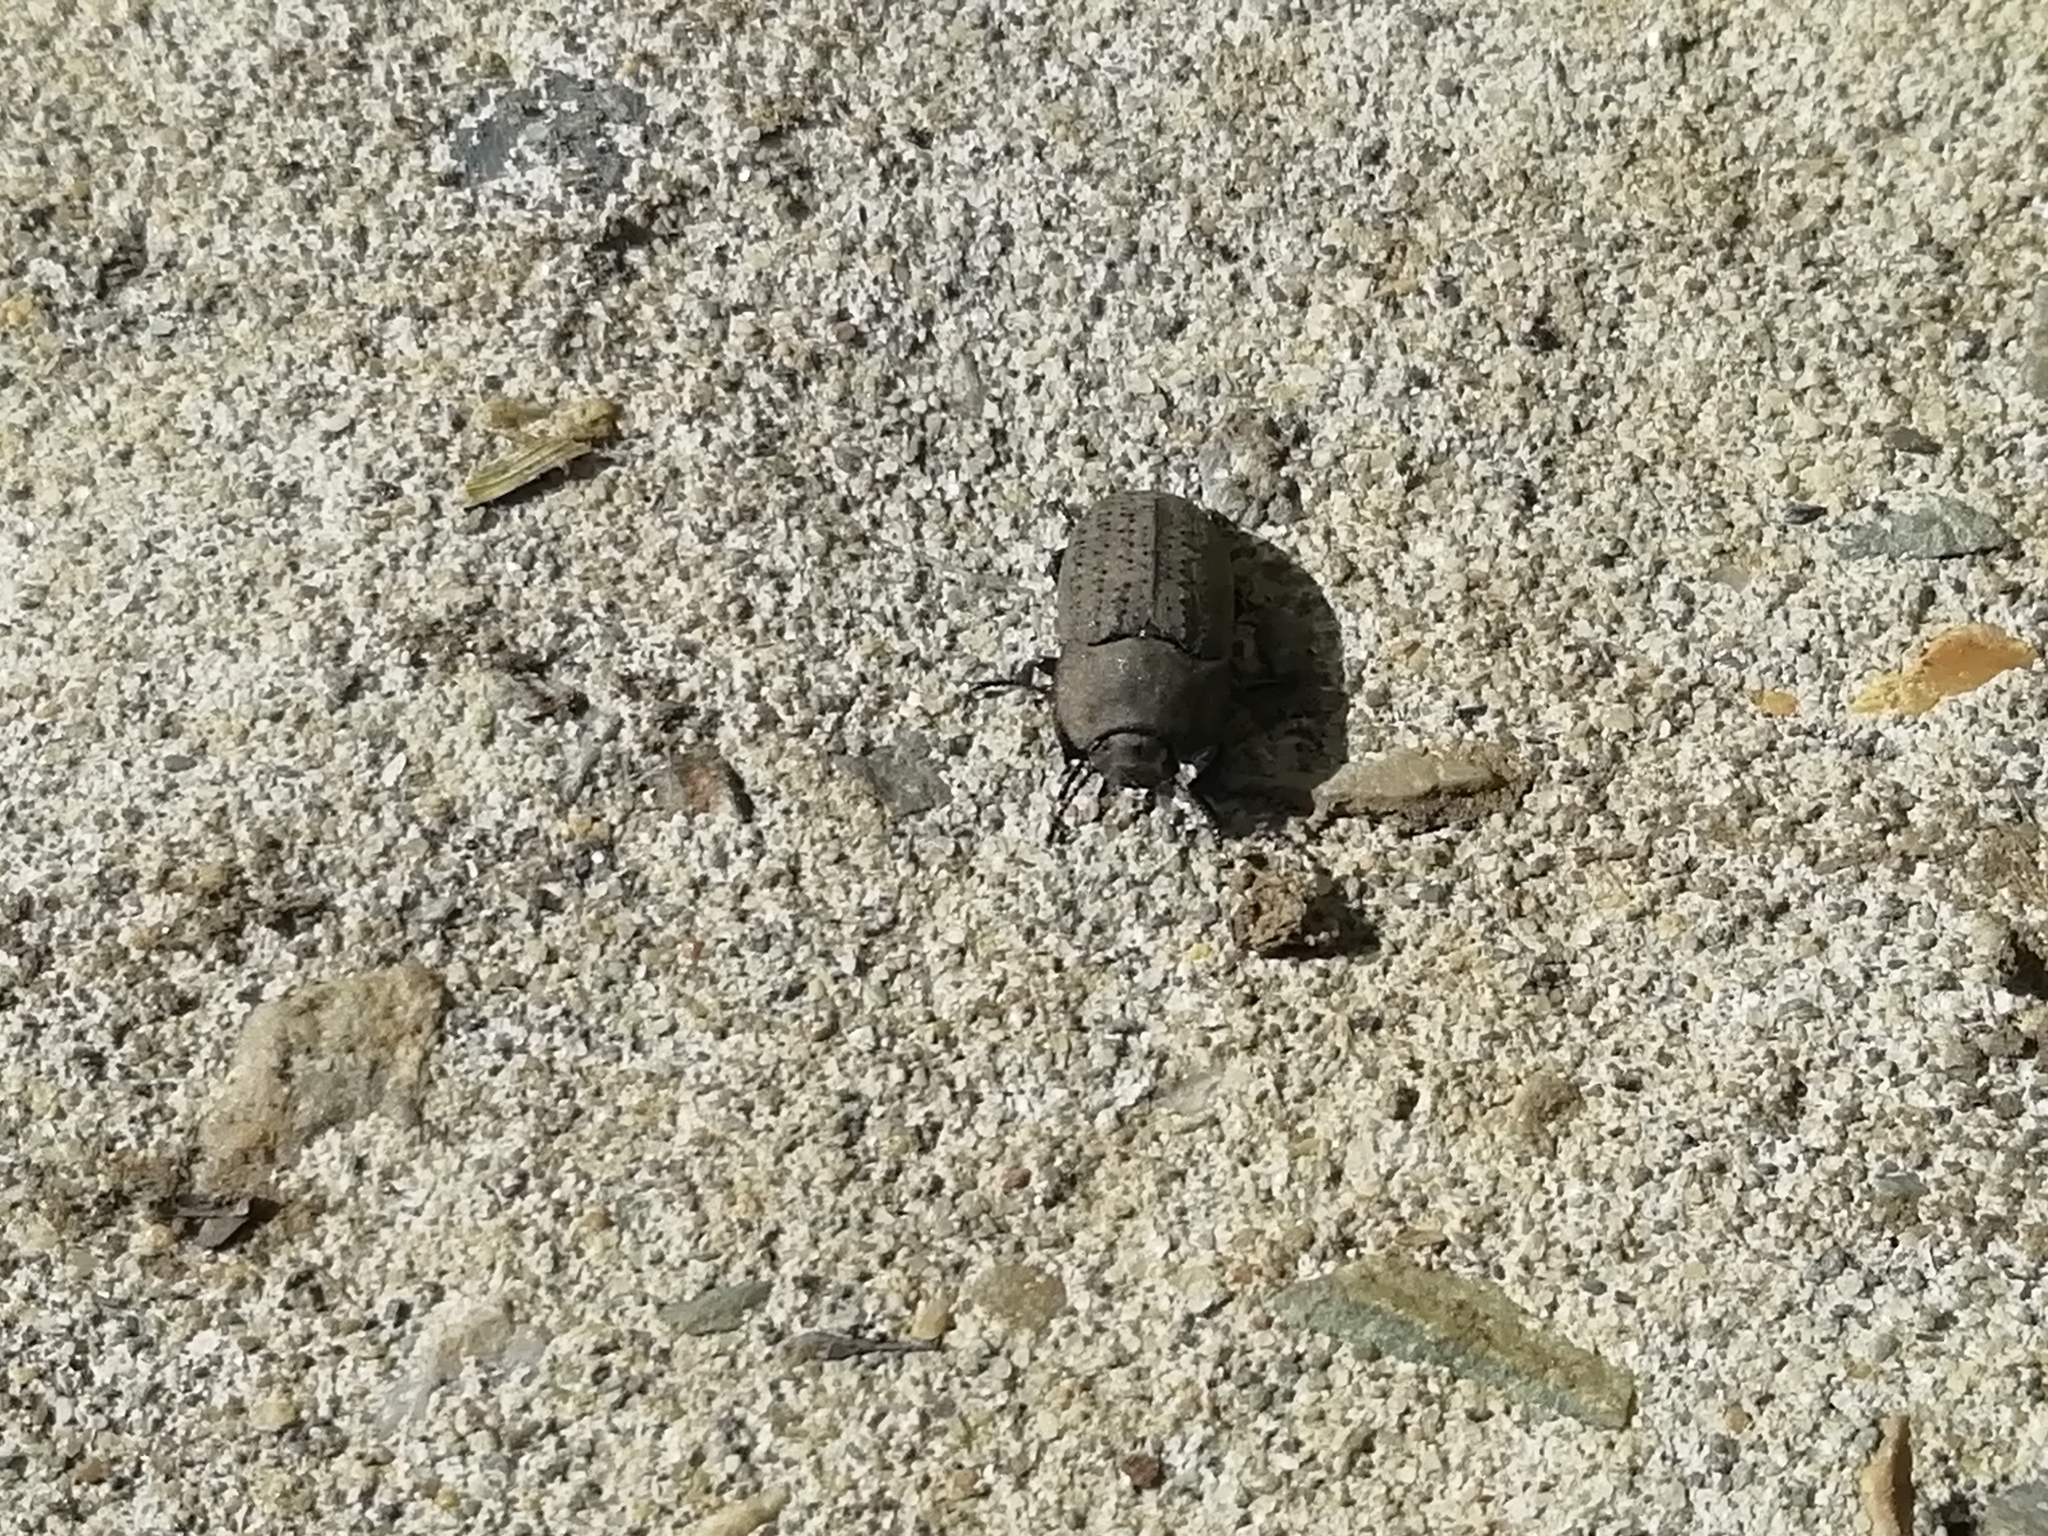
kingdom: Animalia
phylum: Arthropoda
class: Insecta
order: Coleoptera
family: Tenebrionidae
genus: Opatrum
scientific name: Opatrum sabulosum
